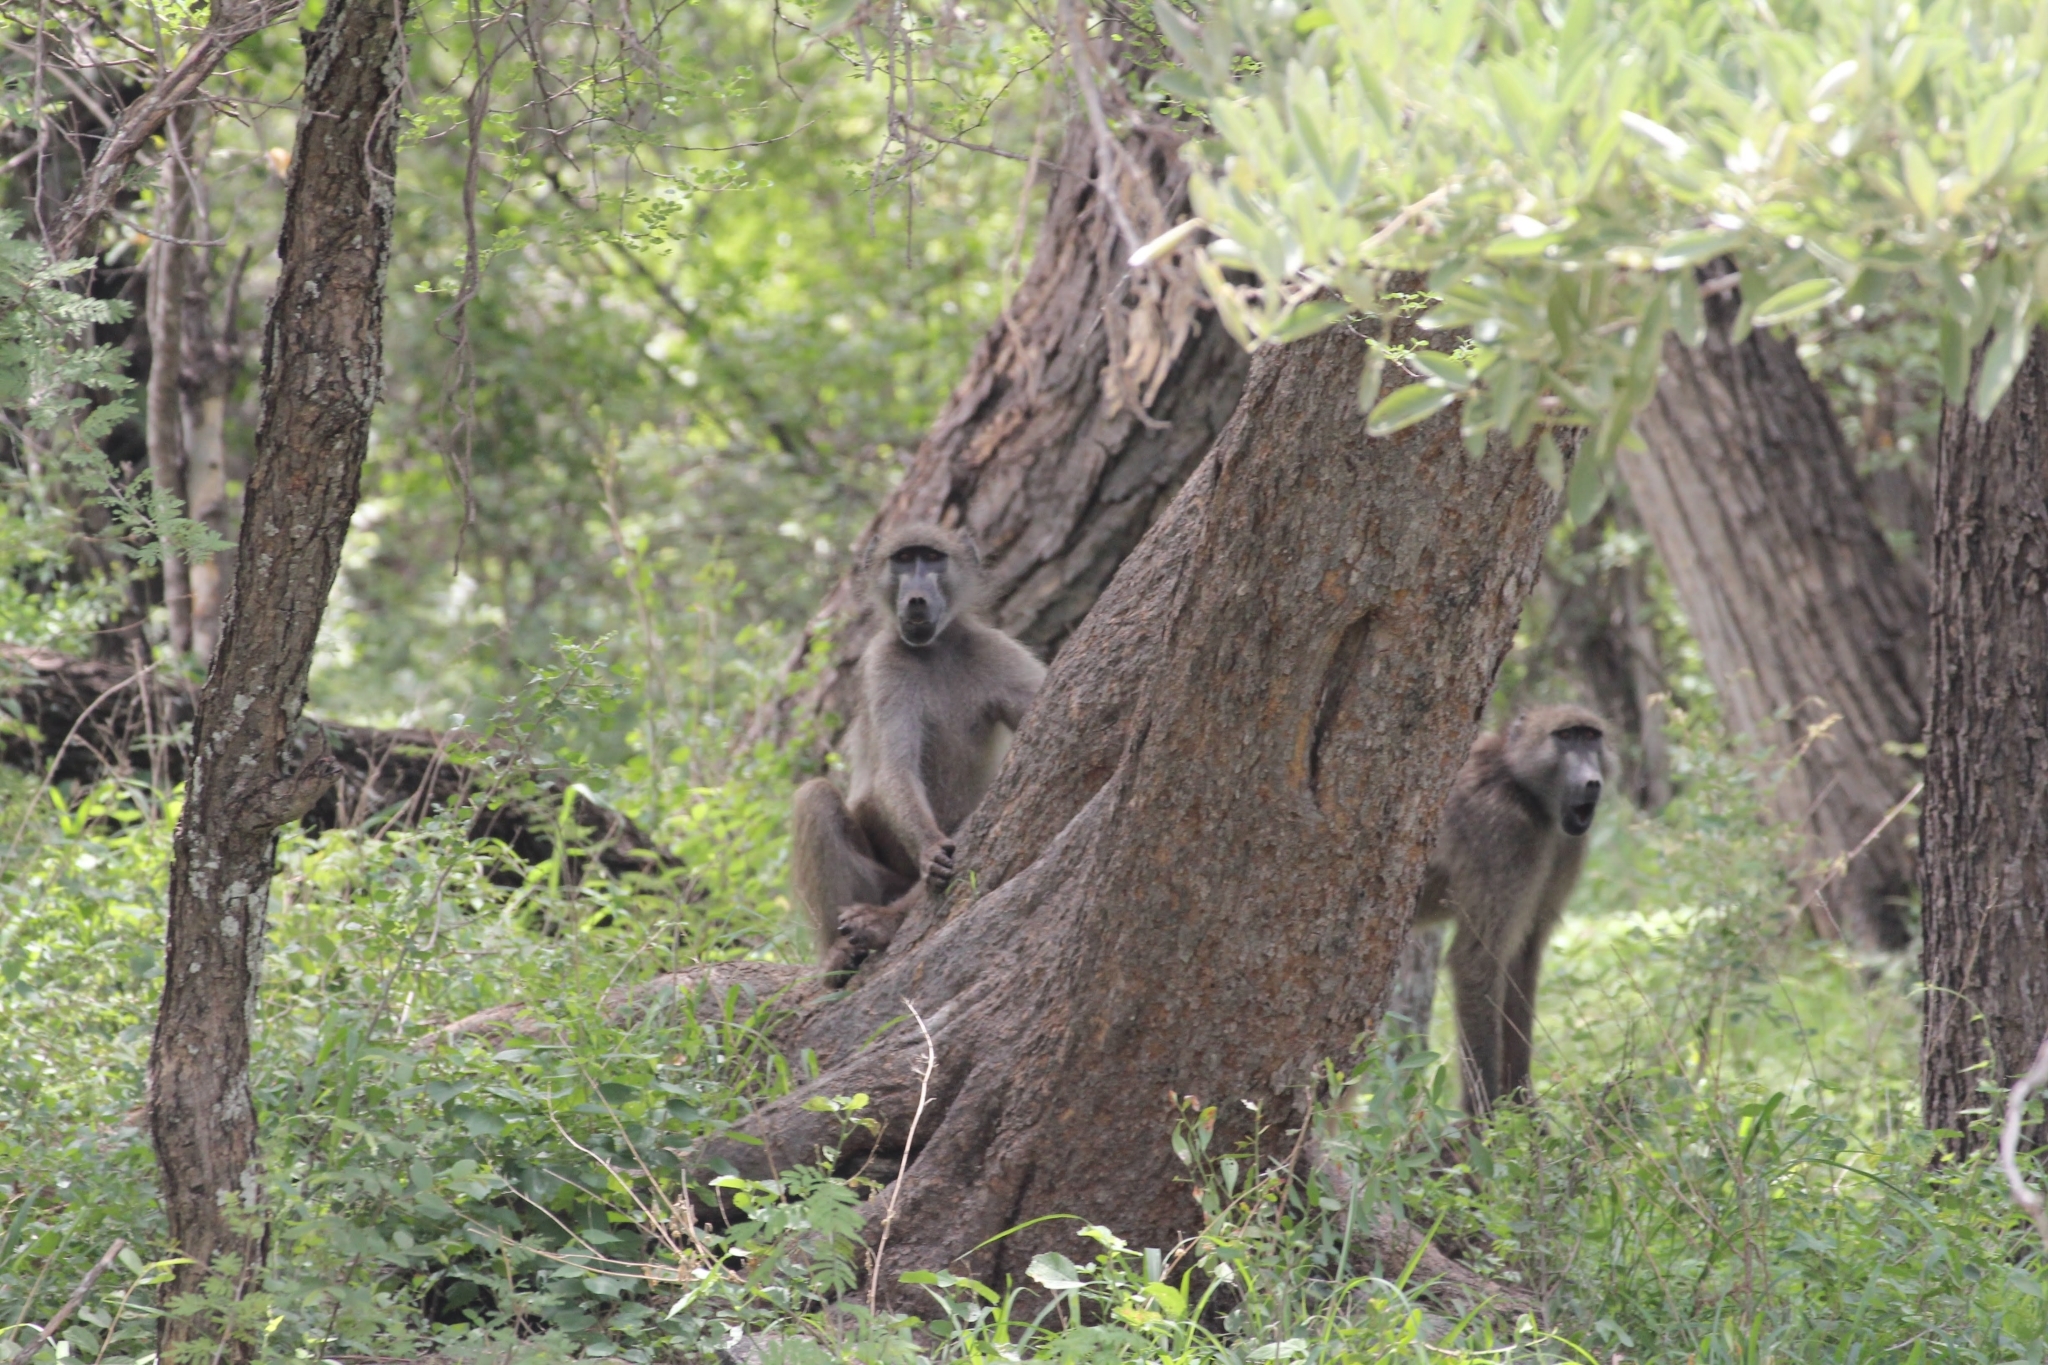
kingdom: Animalia
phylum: Chordata
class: Mammalia
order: Primates
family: Cercopithecidae
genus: Papio
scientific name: Papio ursinus
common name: Chacma baboon
